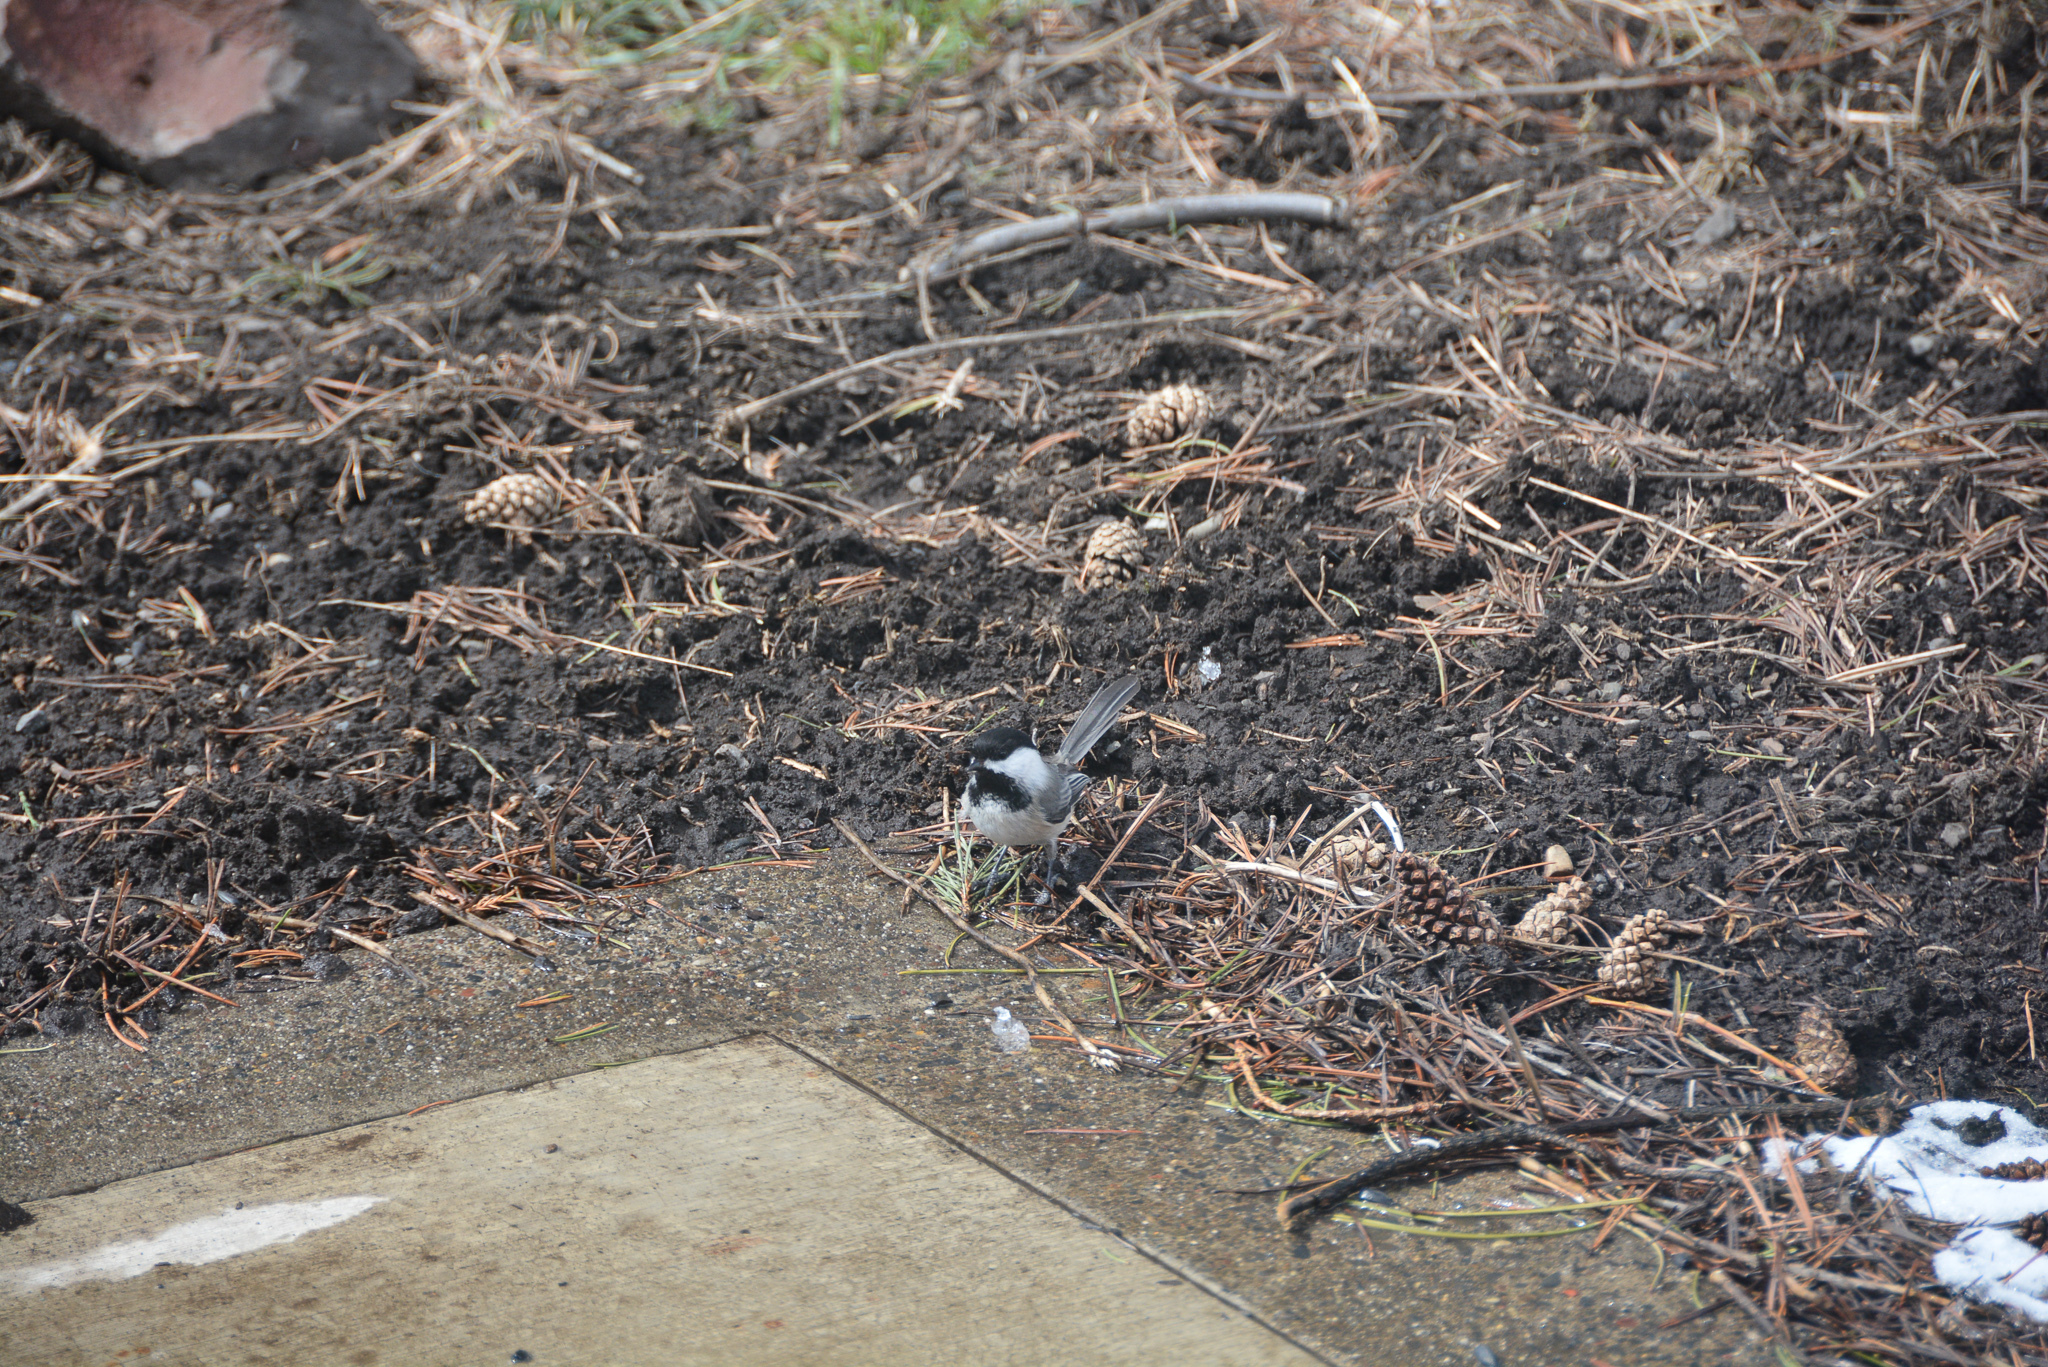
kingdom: Animalia
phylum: Chordata
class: Aves
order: Passeriformes
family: Paridae
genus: Poecile
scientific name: Poecile atricapillus
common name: Black-capped chickadee
